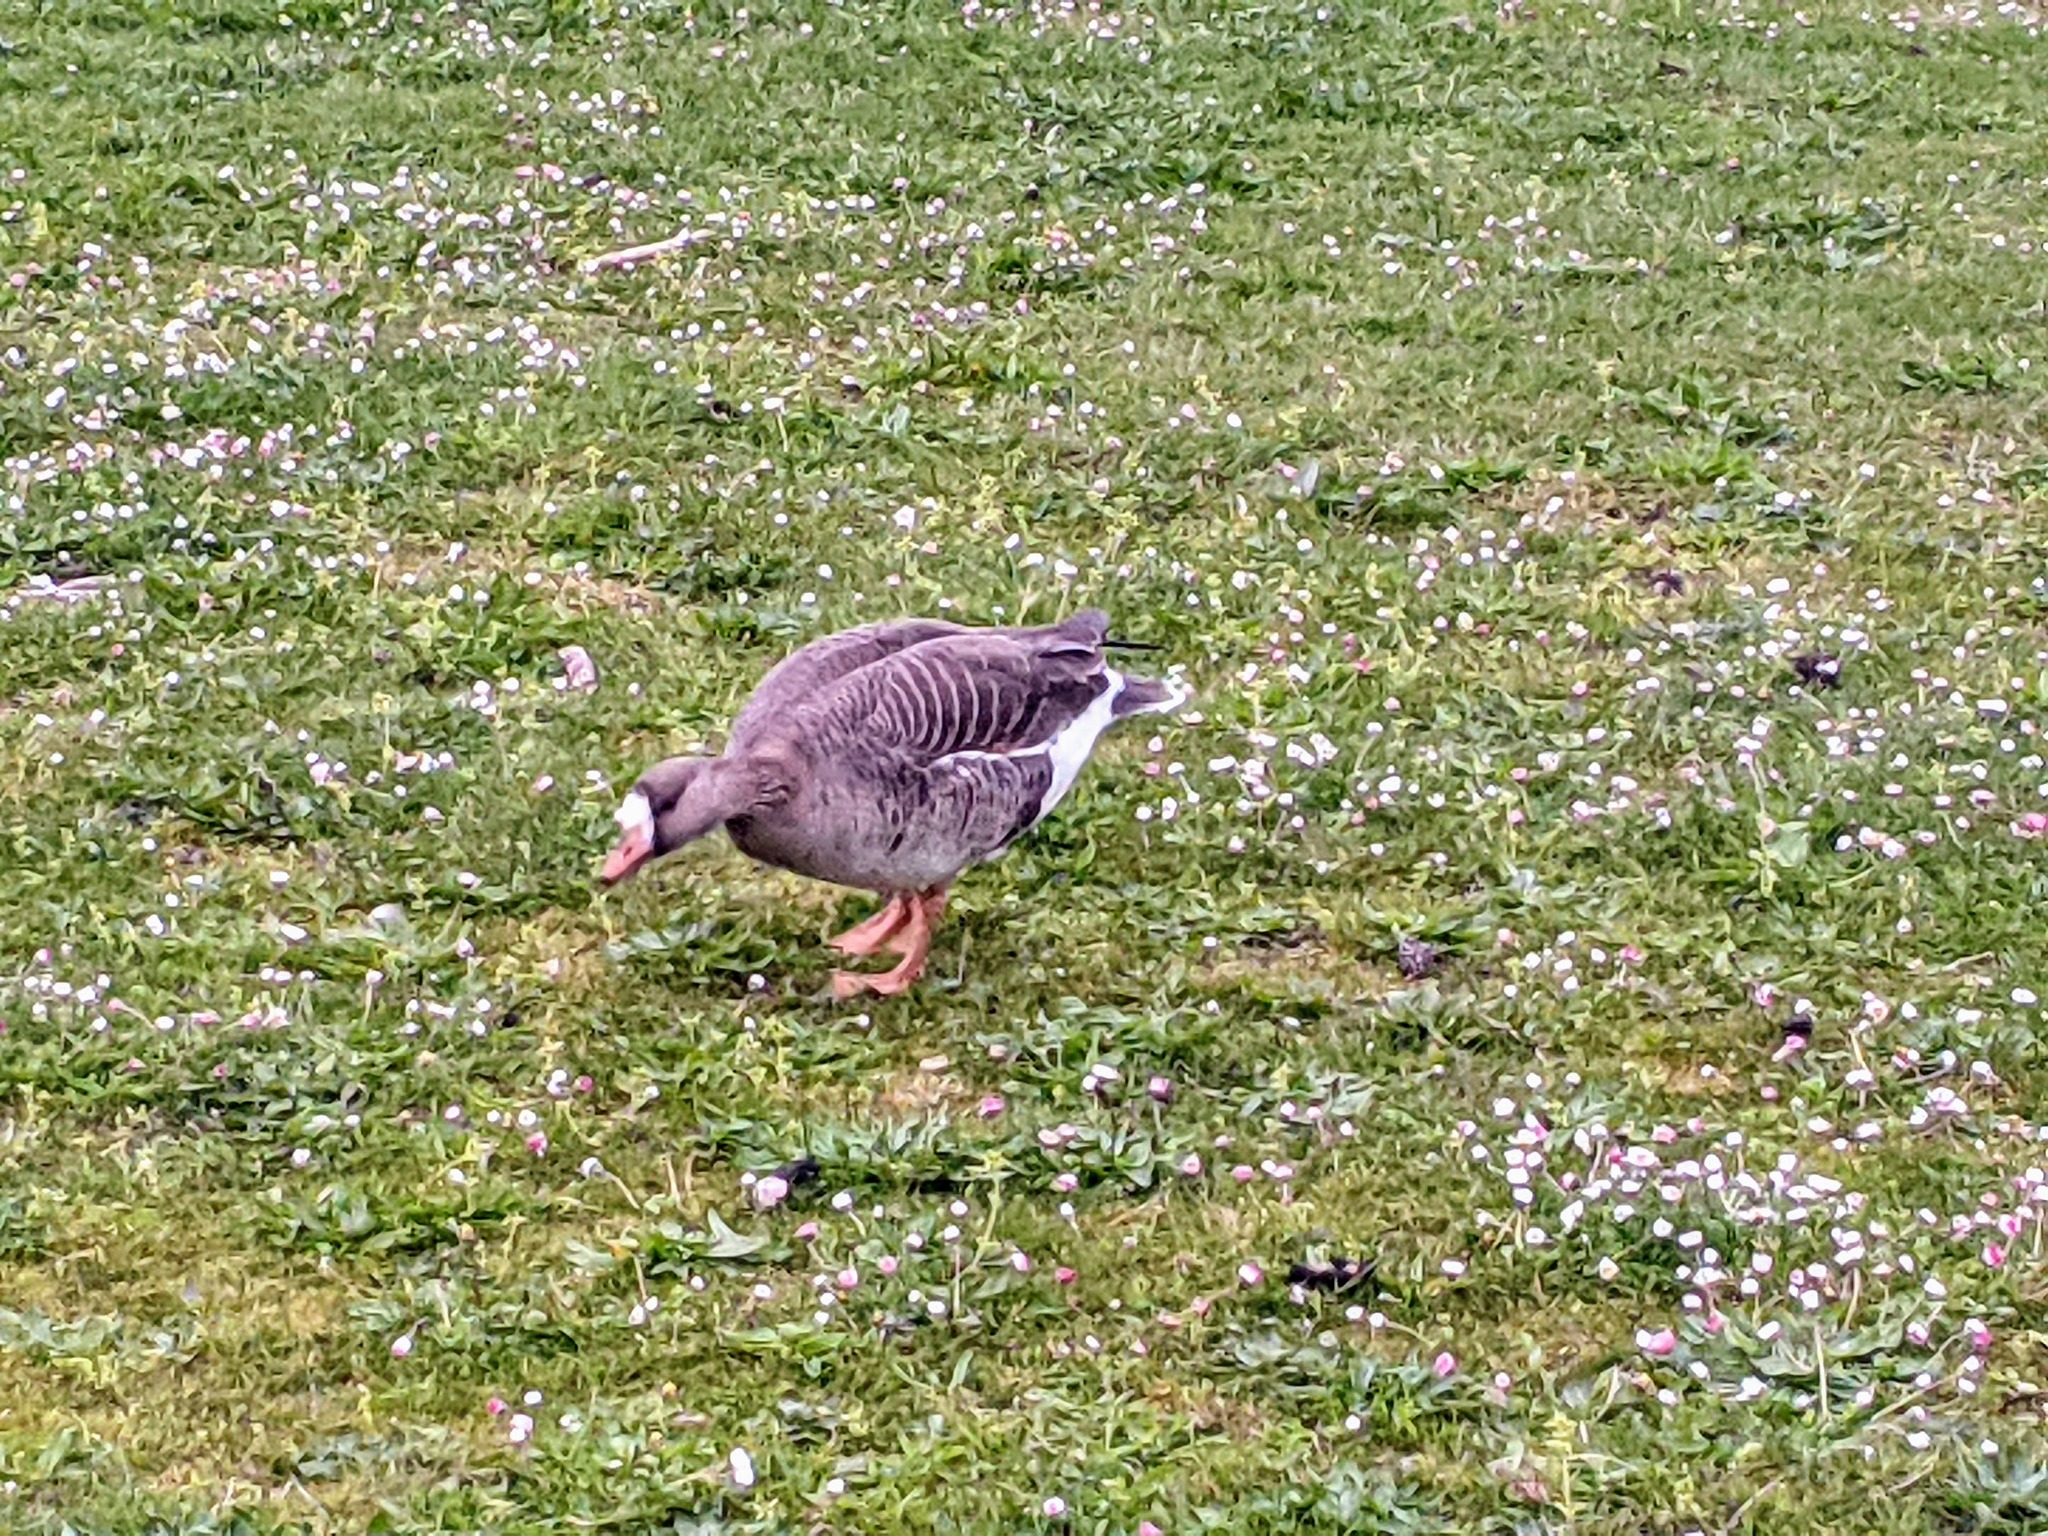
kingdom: Animalia
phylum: Chordata
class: Aves
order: Anseriformes
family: Anatidae
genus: Anser
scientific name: Anser albifrons
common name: Greater white-fronted goose
